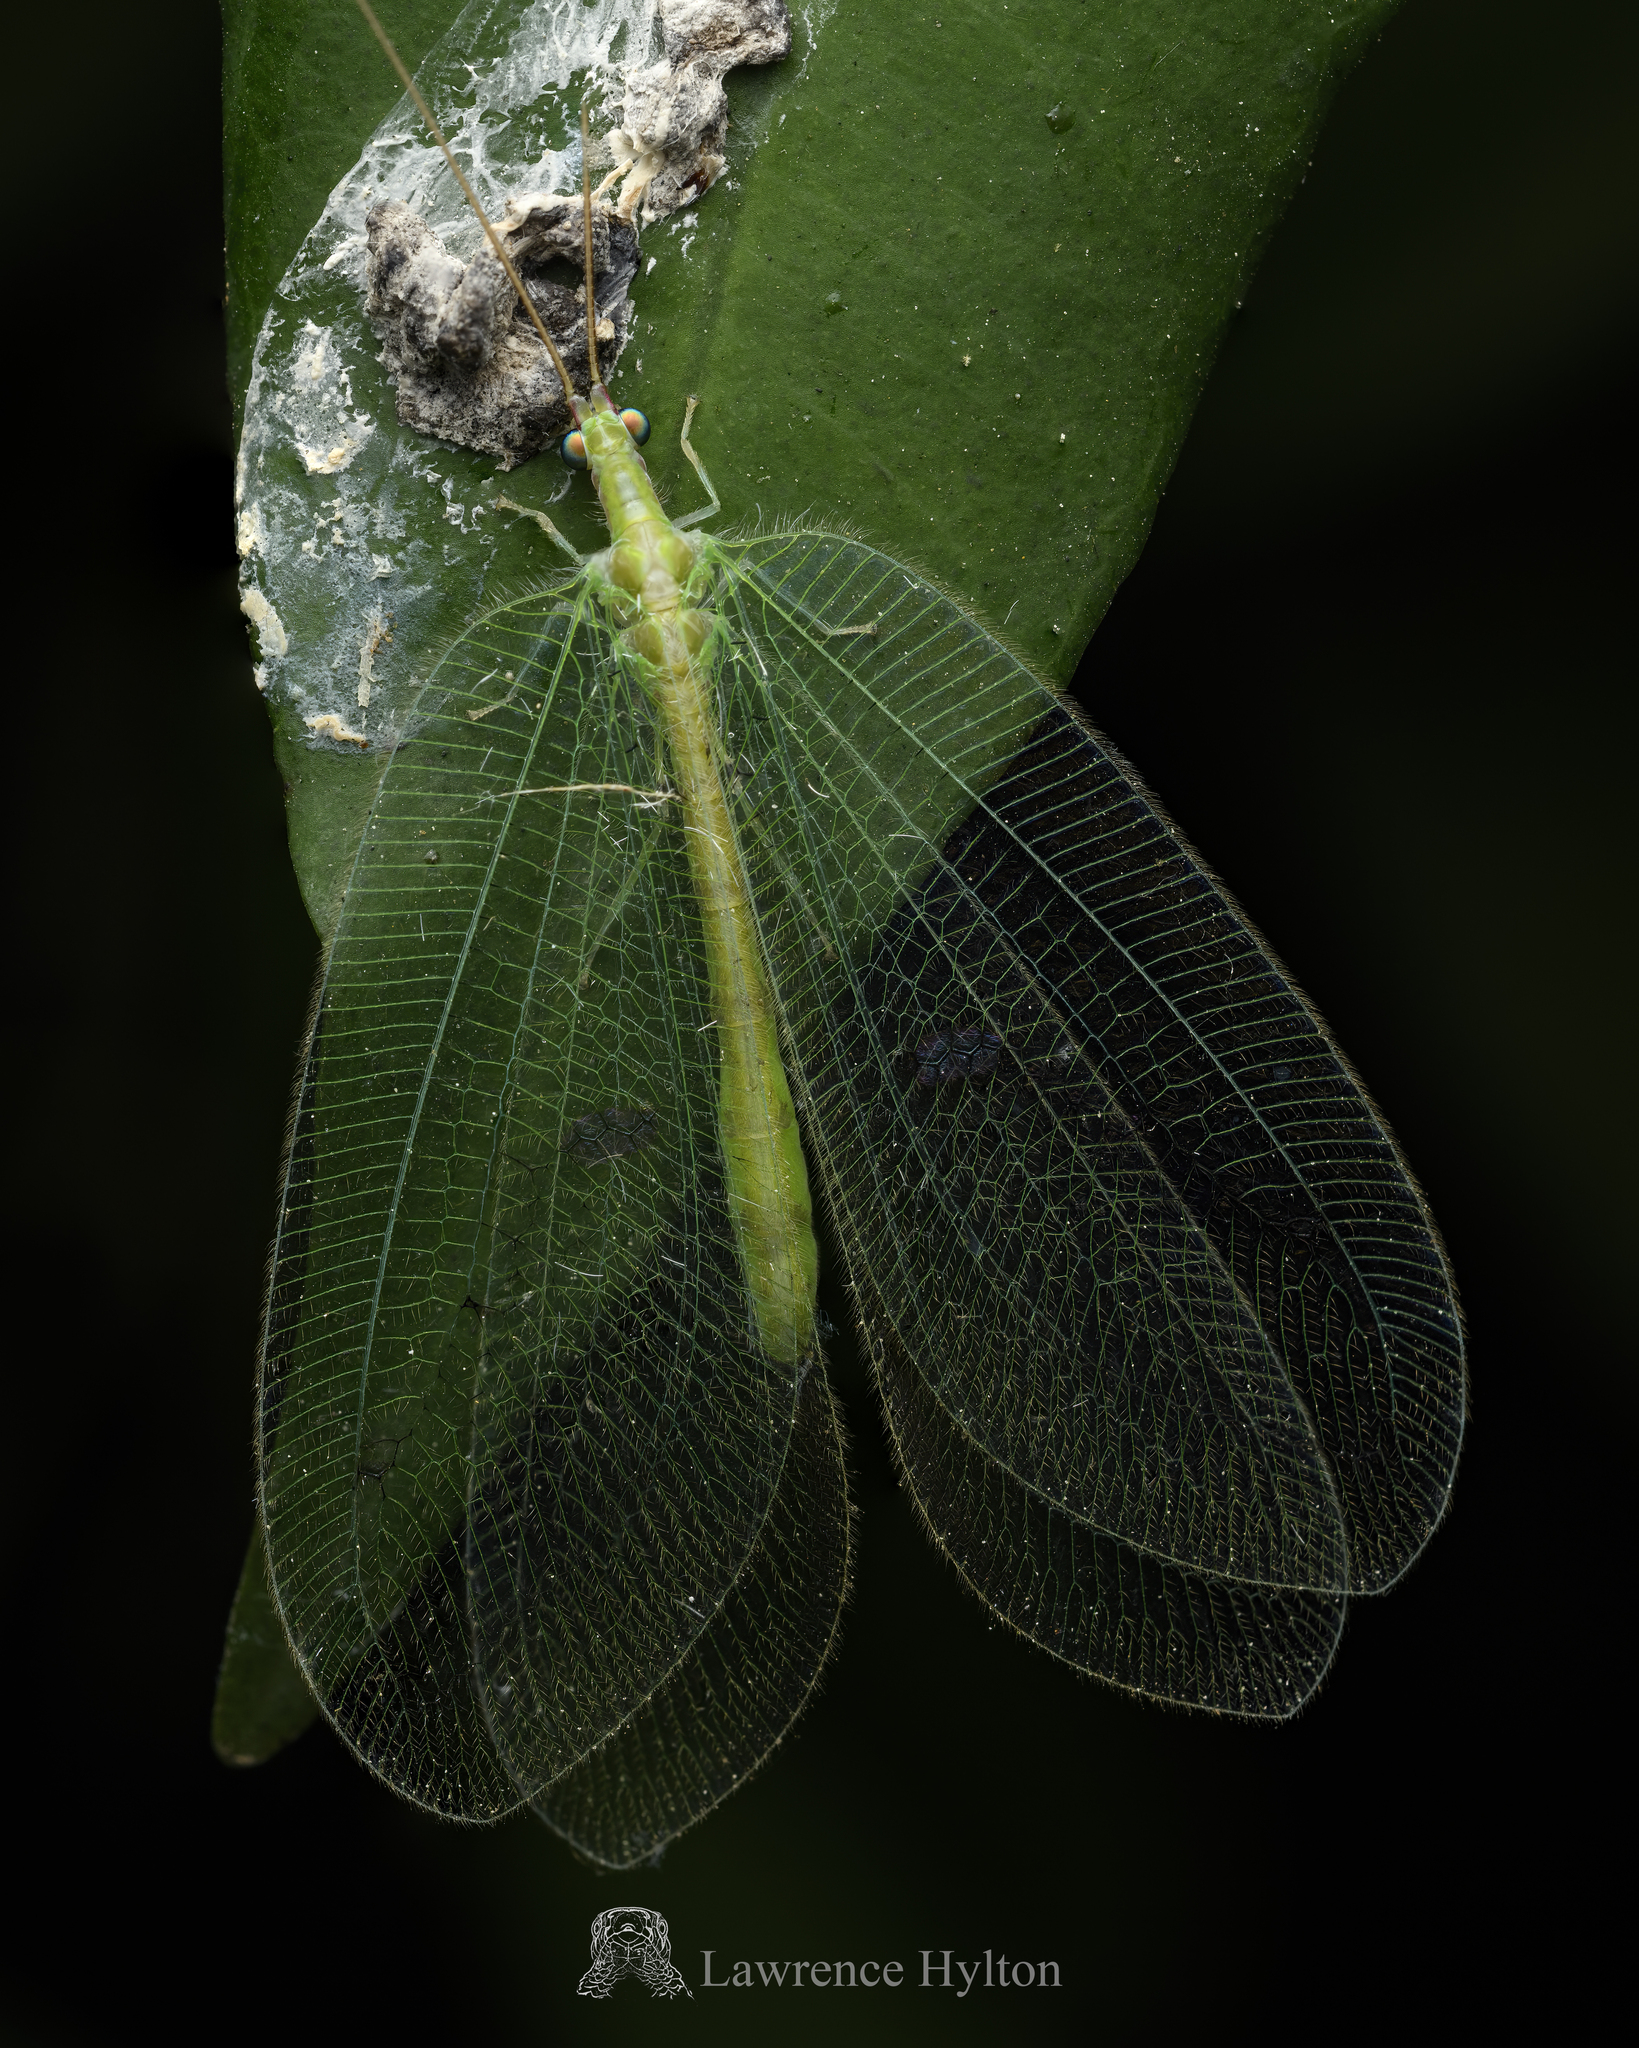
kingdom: Animalia
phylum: Arthropoda
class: Insecta
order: Neuroptera
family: Chrysopidae
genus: Apochrysa
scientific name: Apochrysa matsumurae
